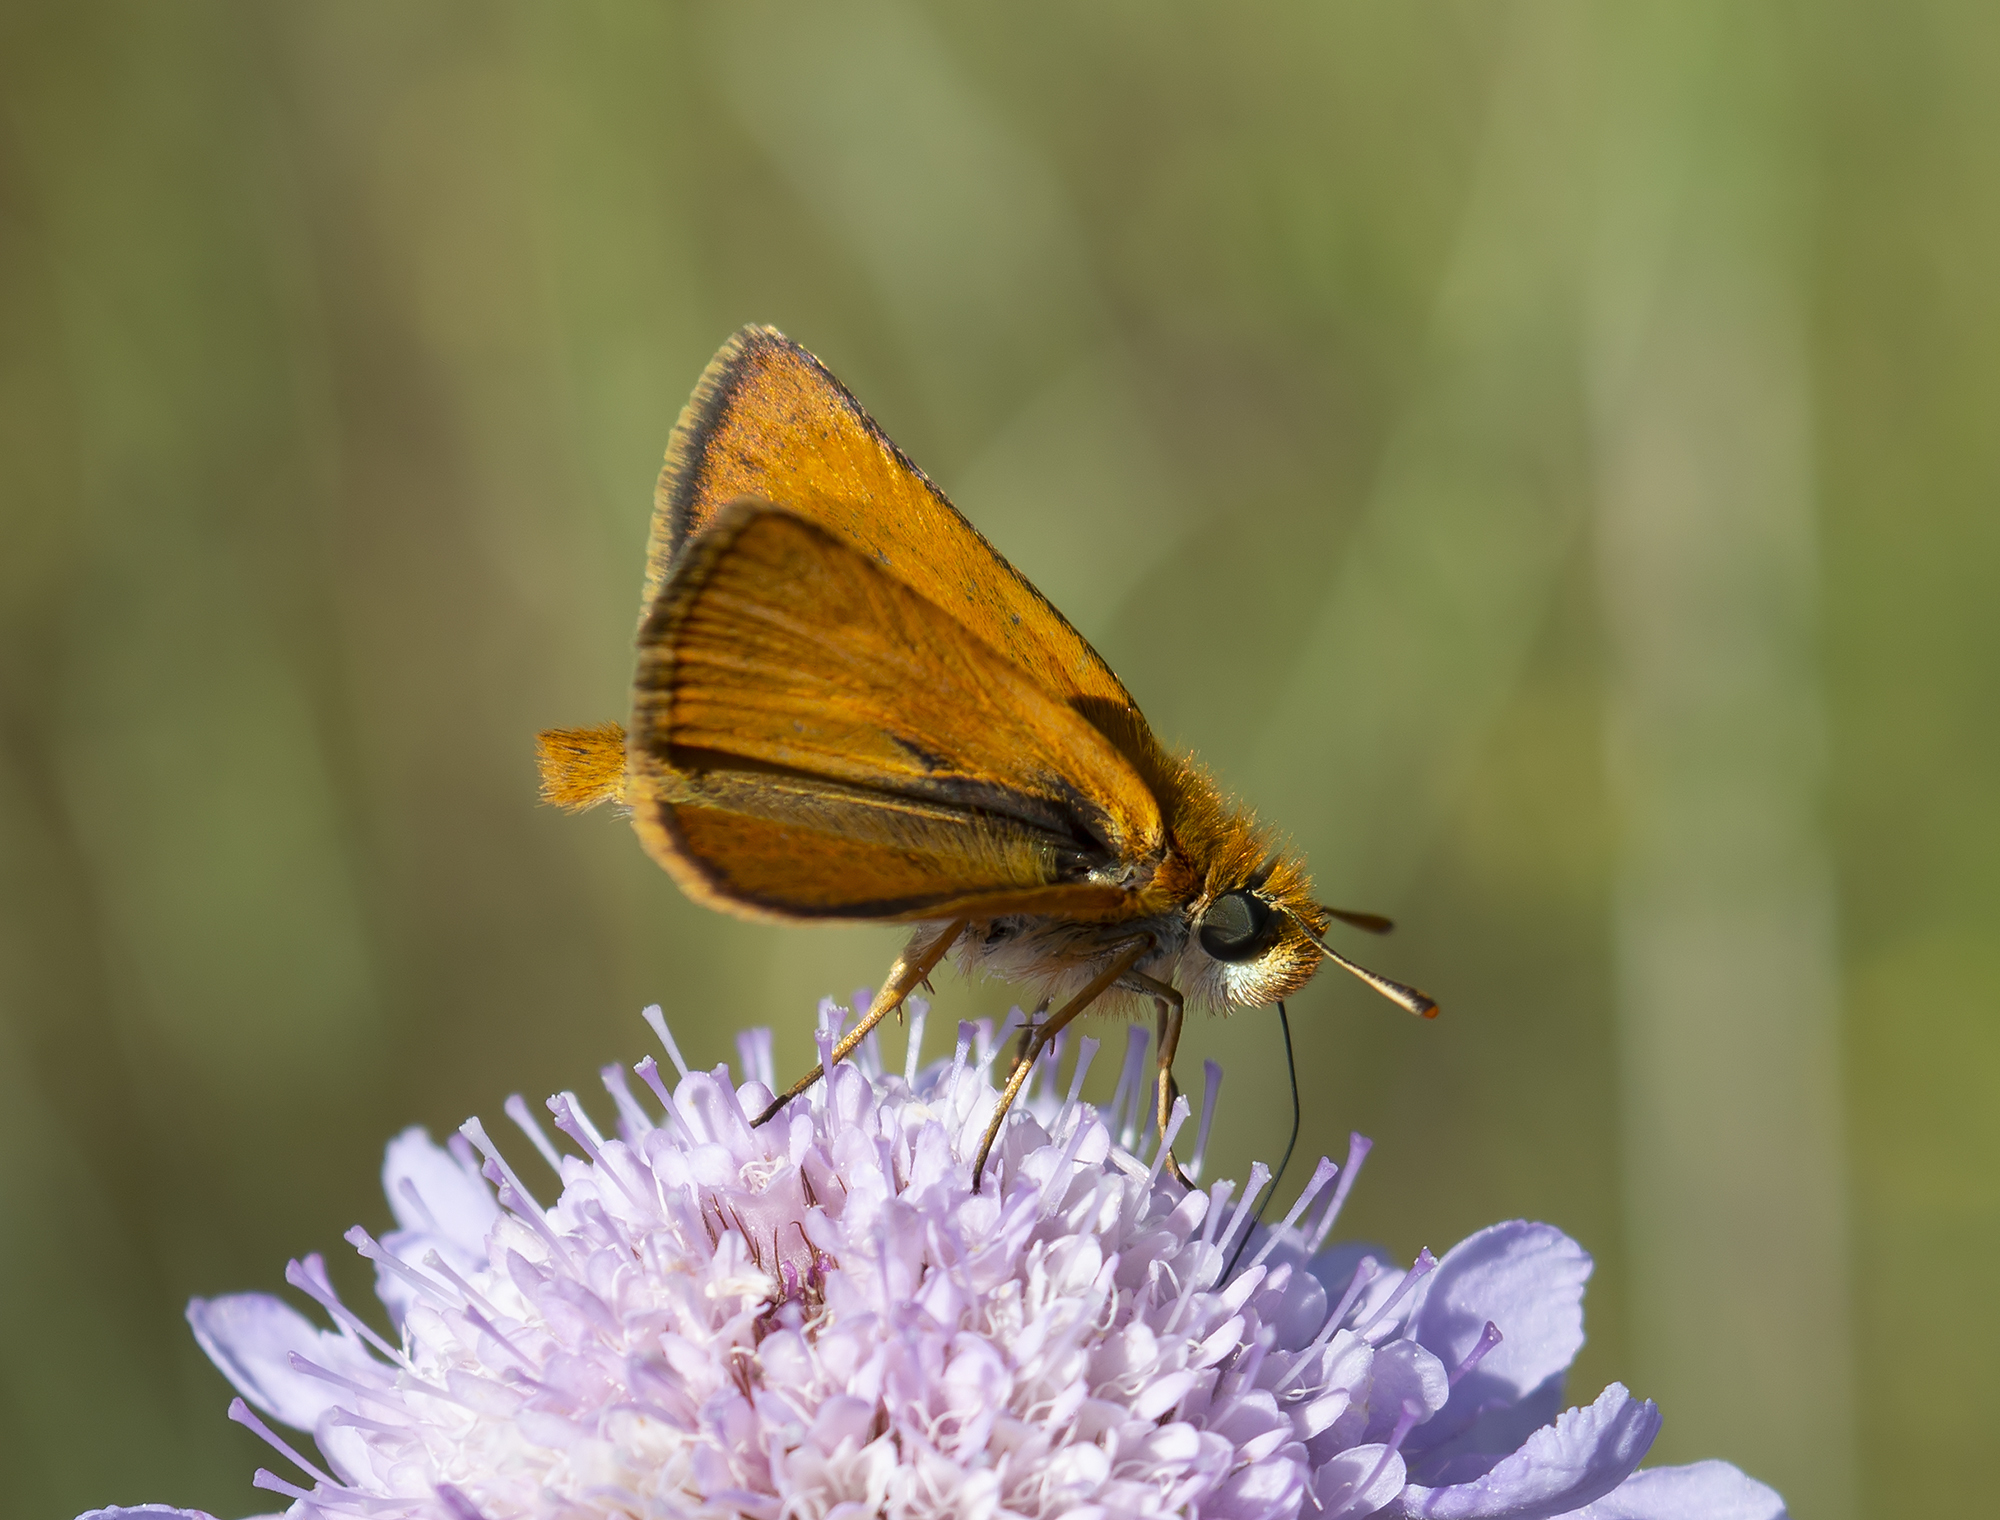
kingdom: Animalia
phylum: Arthropoda
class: Insecta
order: Lepidoptera
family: Hesperiidae
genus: Thymelicus
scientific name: Thymelicus acteon
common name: Lulworth skipper
